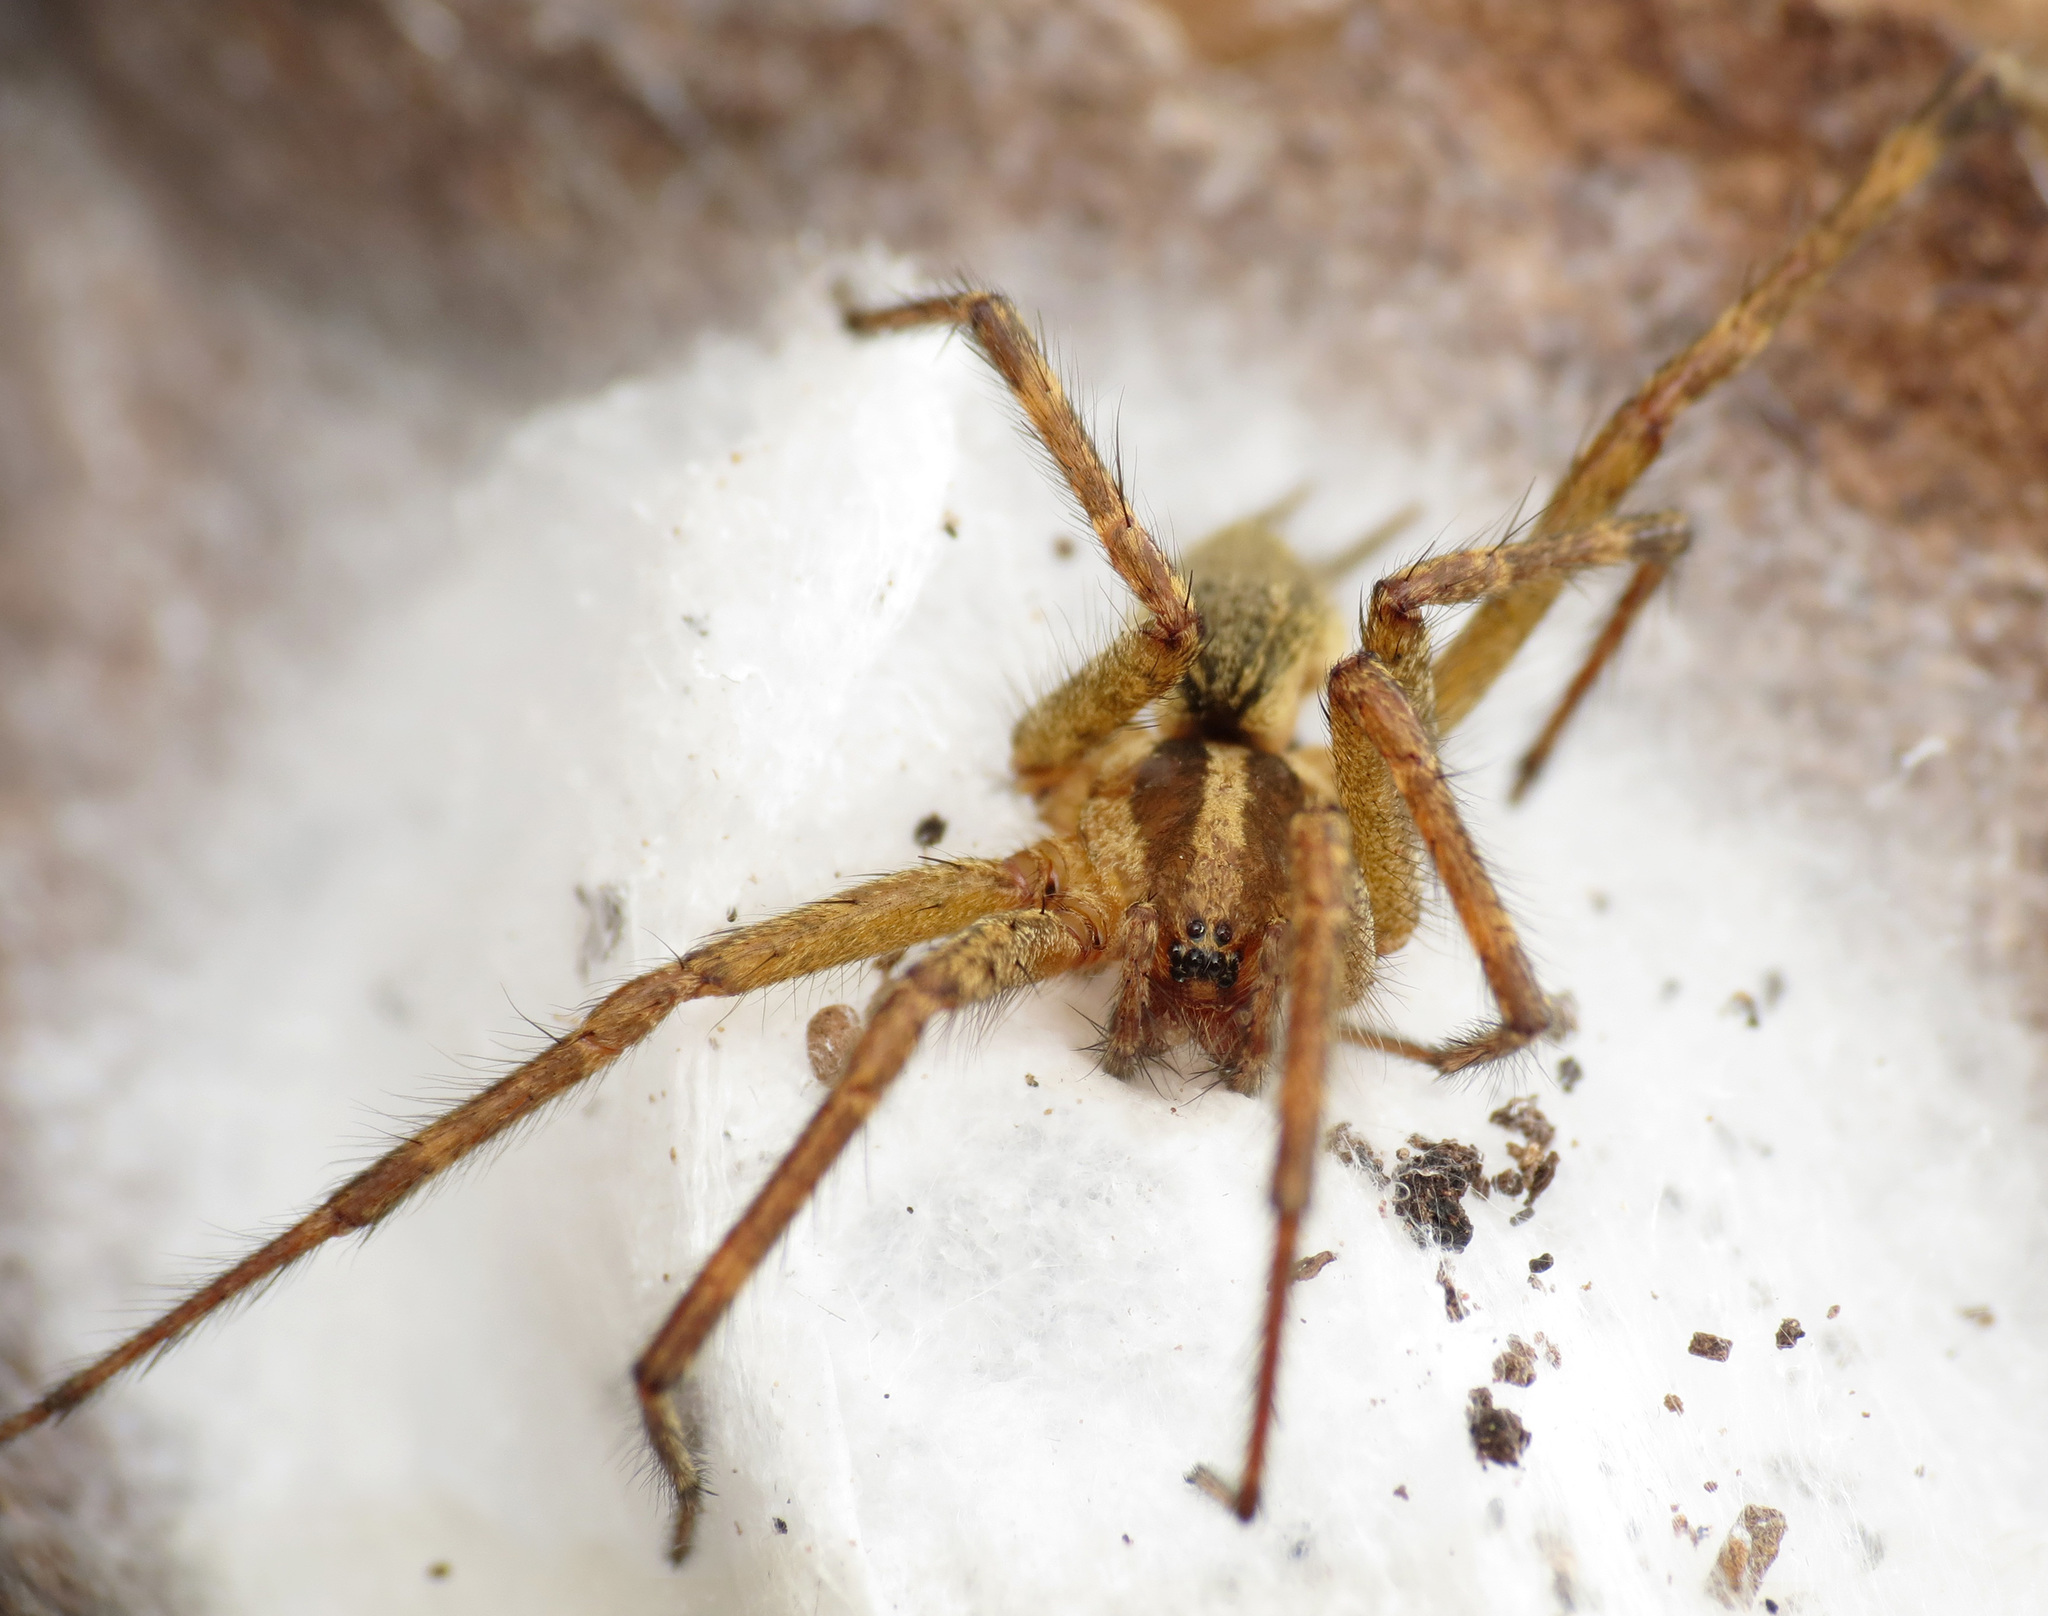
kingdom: Animalia
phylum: Arthropoda
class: Arachnida
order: Araneae
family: Agelenidae
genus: Agelenopsis
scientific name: Agelenopsis
